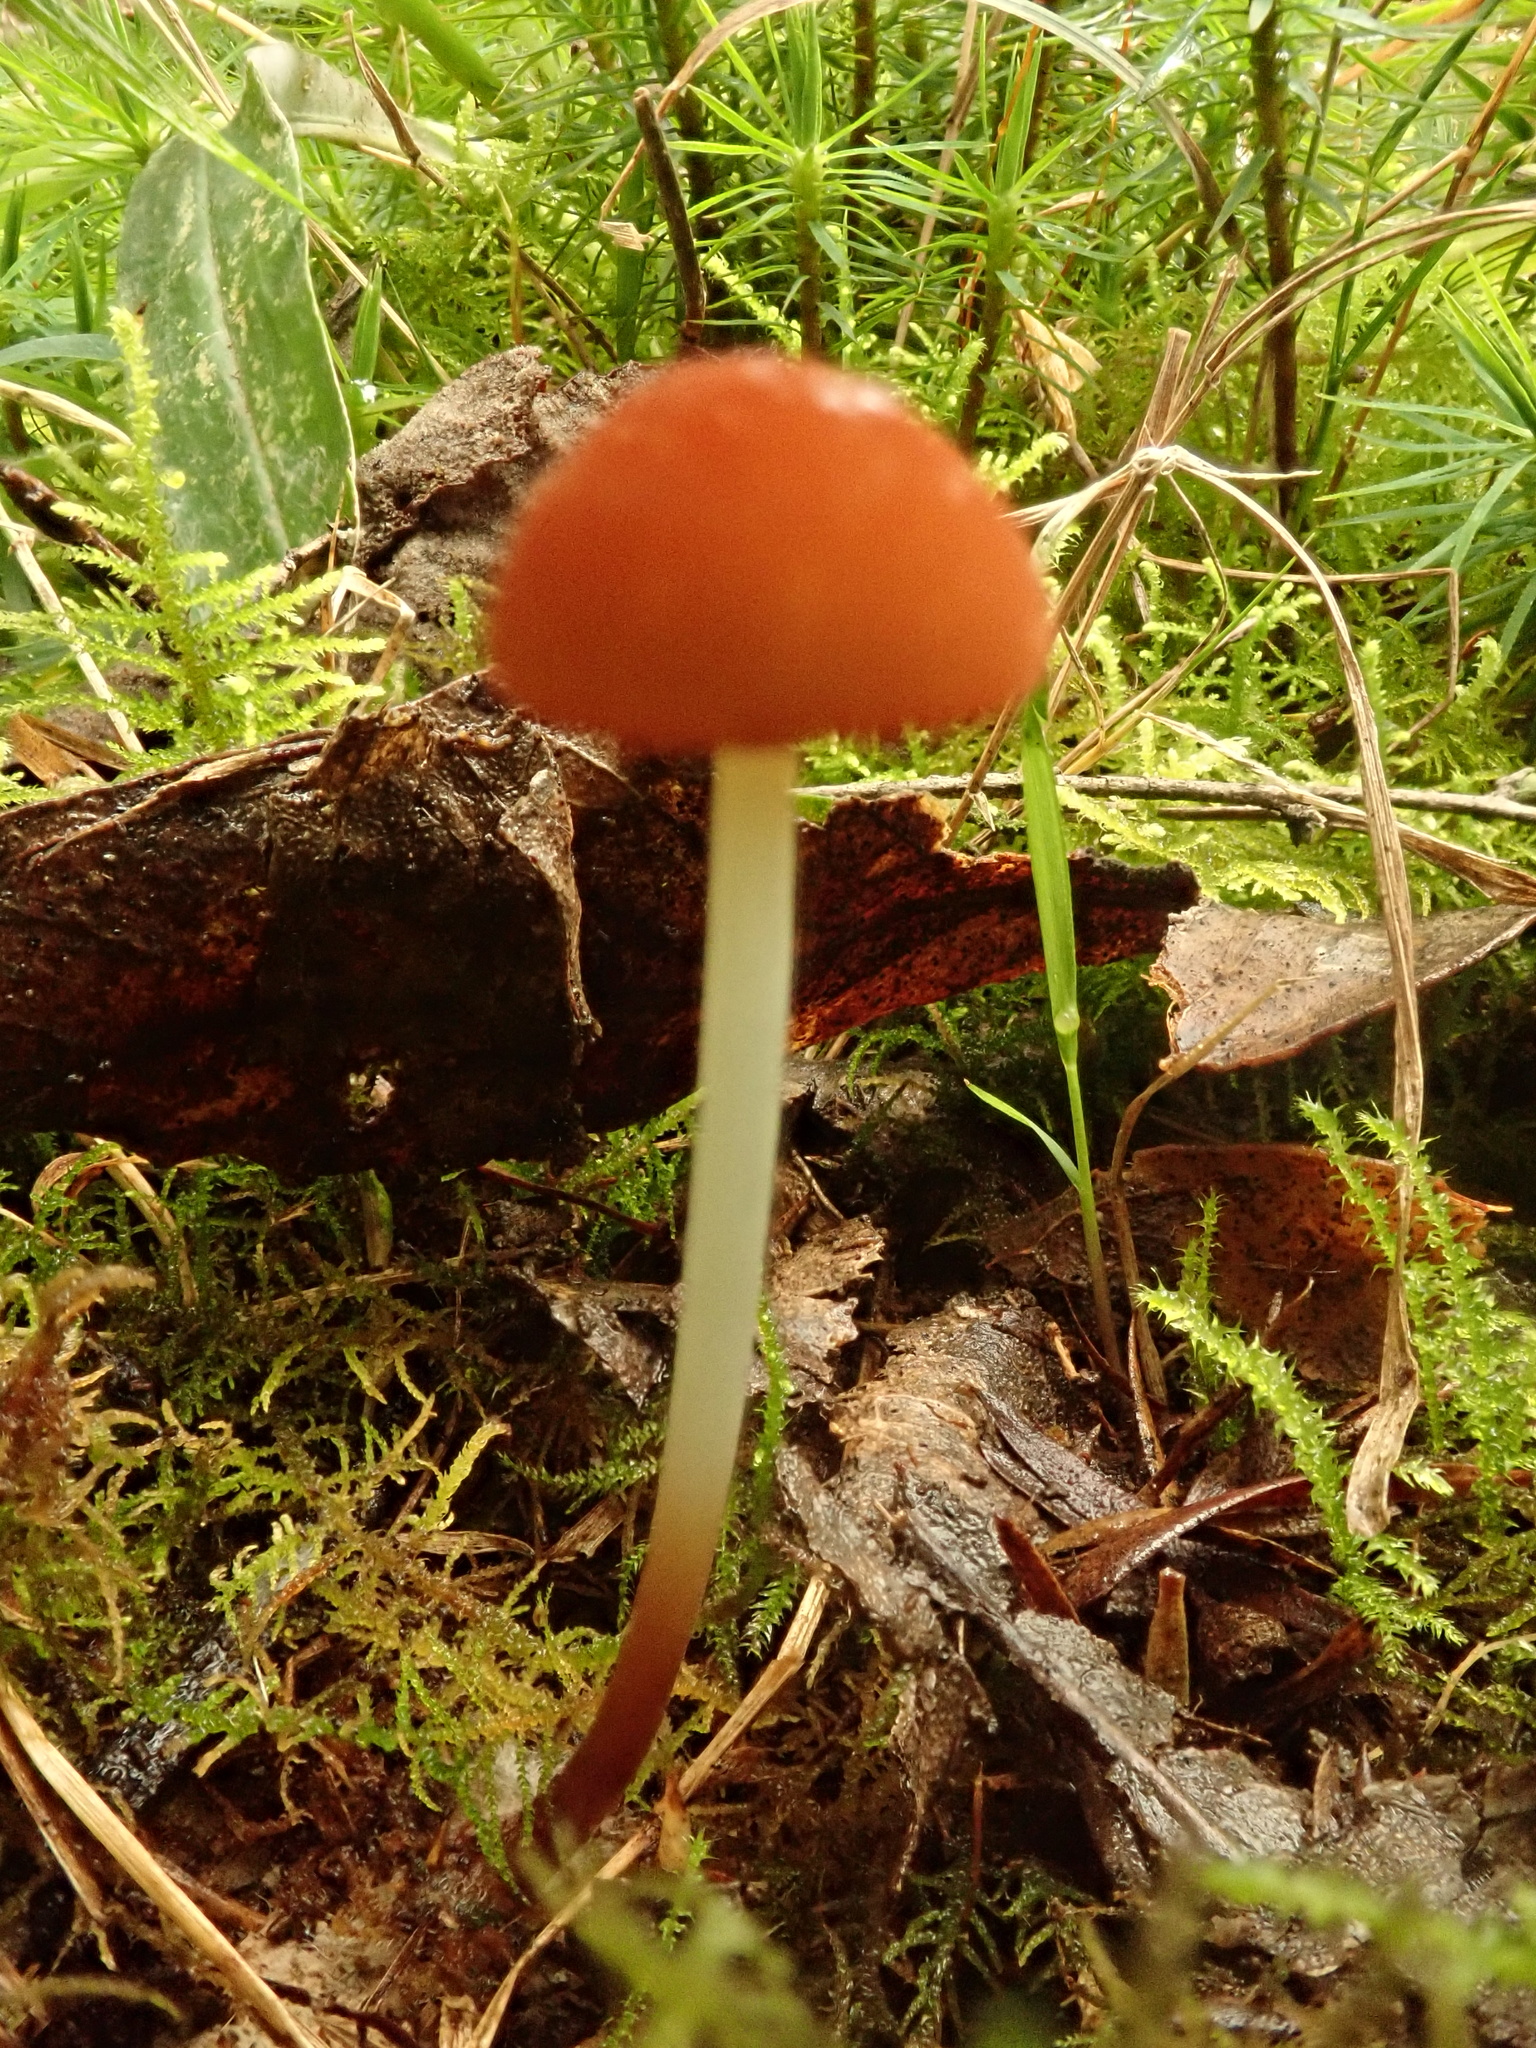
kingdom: Fungi
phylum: Basidiomycota
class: Agaricomycetes
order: Agaricales
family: Marasmiaceae
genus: Marasmius
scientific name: Marasmius elegans
